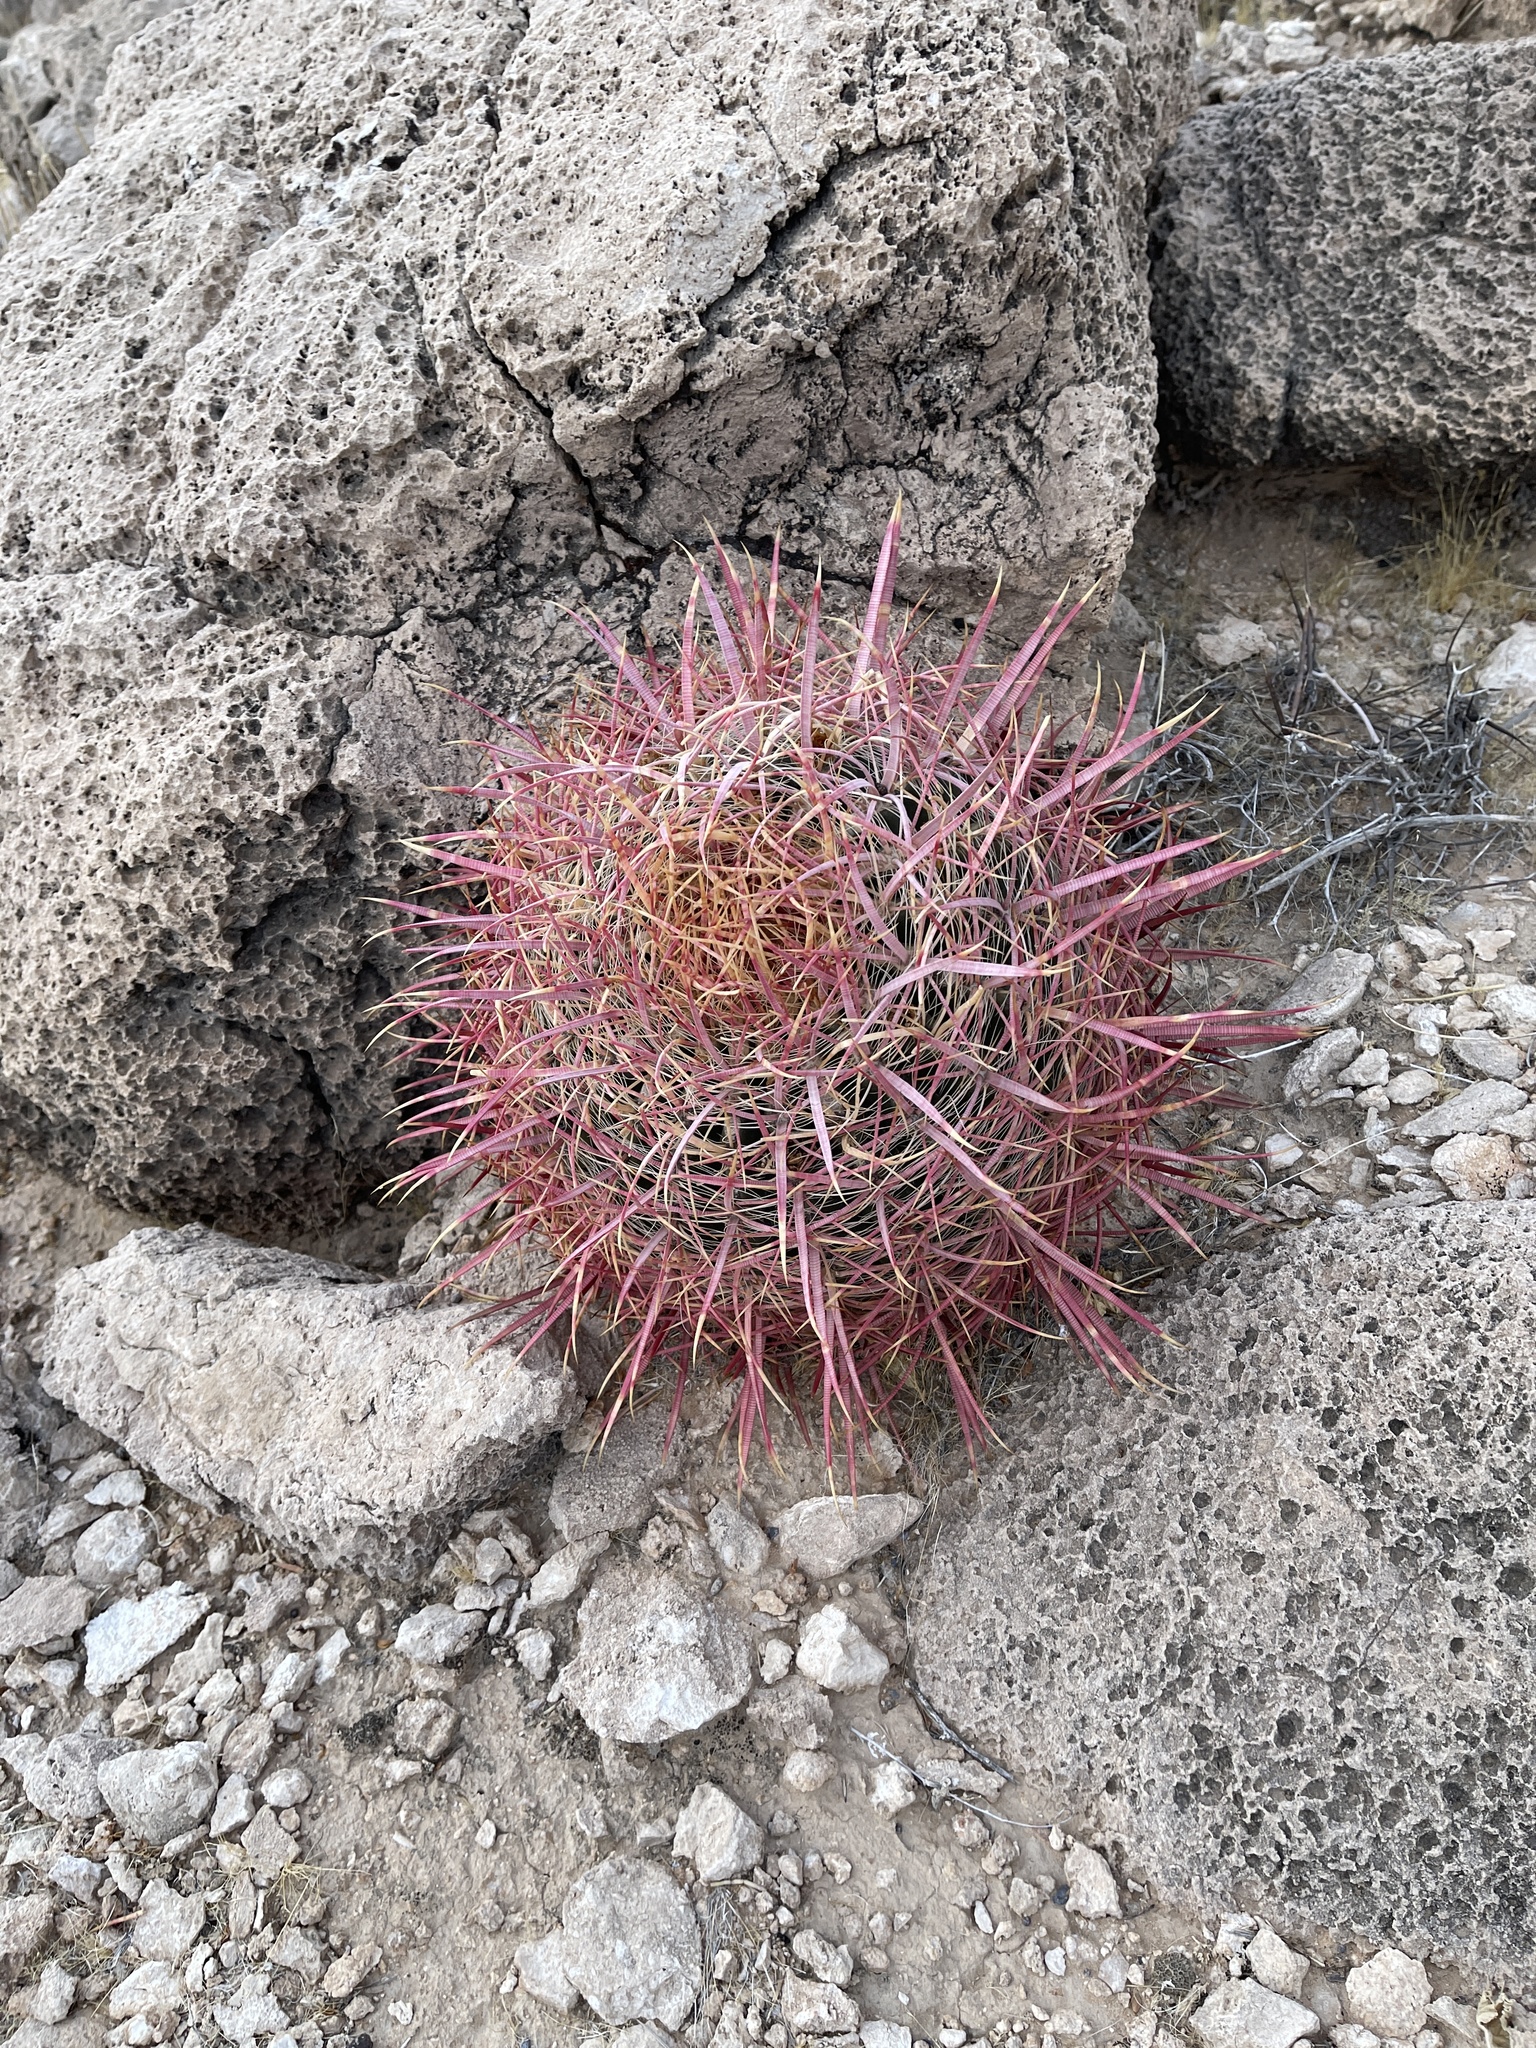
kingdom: Plantae
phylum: Tracheophyta
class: Magnoliopsida
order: Caryophyllales
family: Cactaceae
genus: Ferocactus
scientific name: Ferocactus cylindraceus
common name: California barrel cactus
